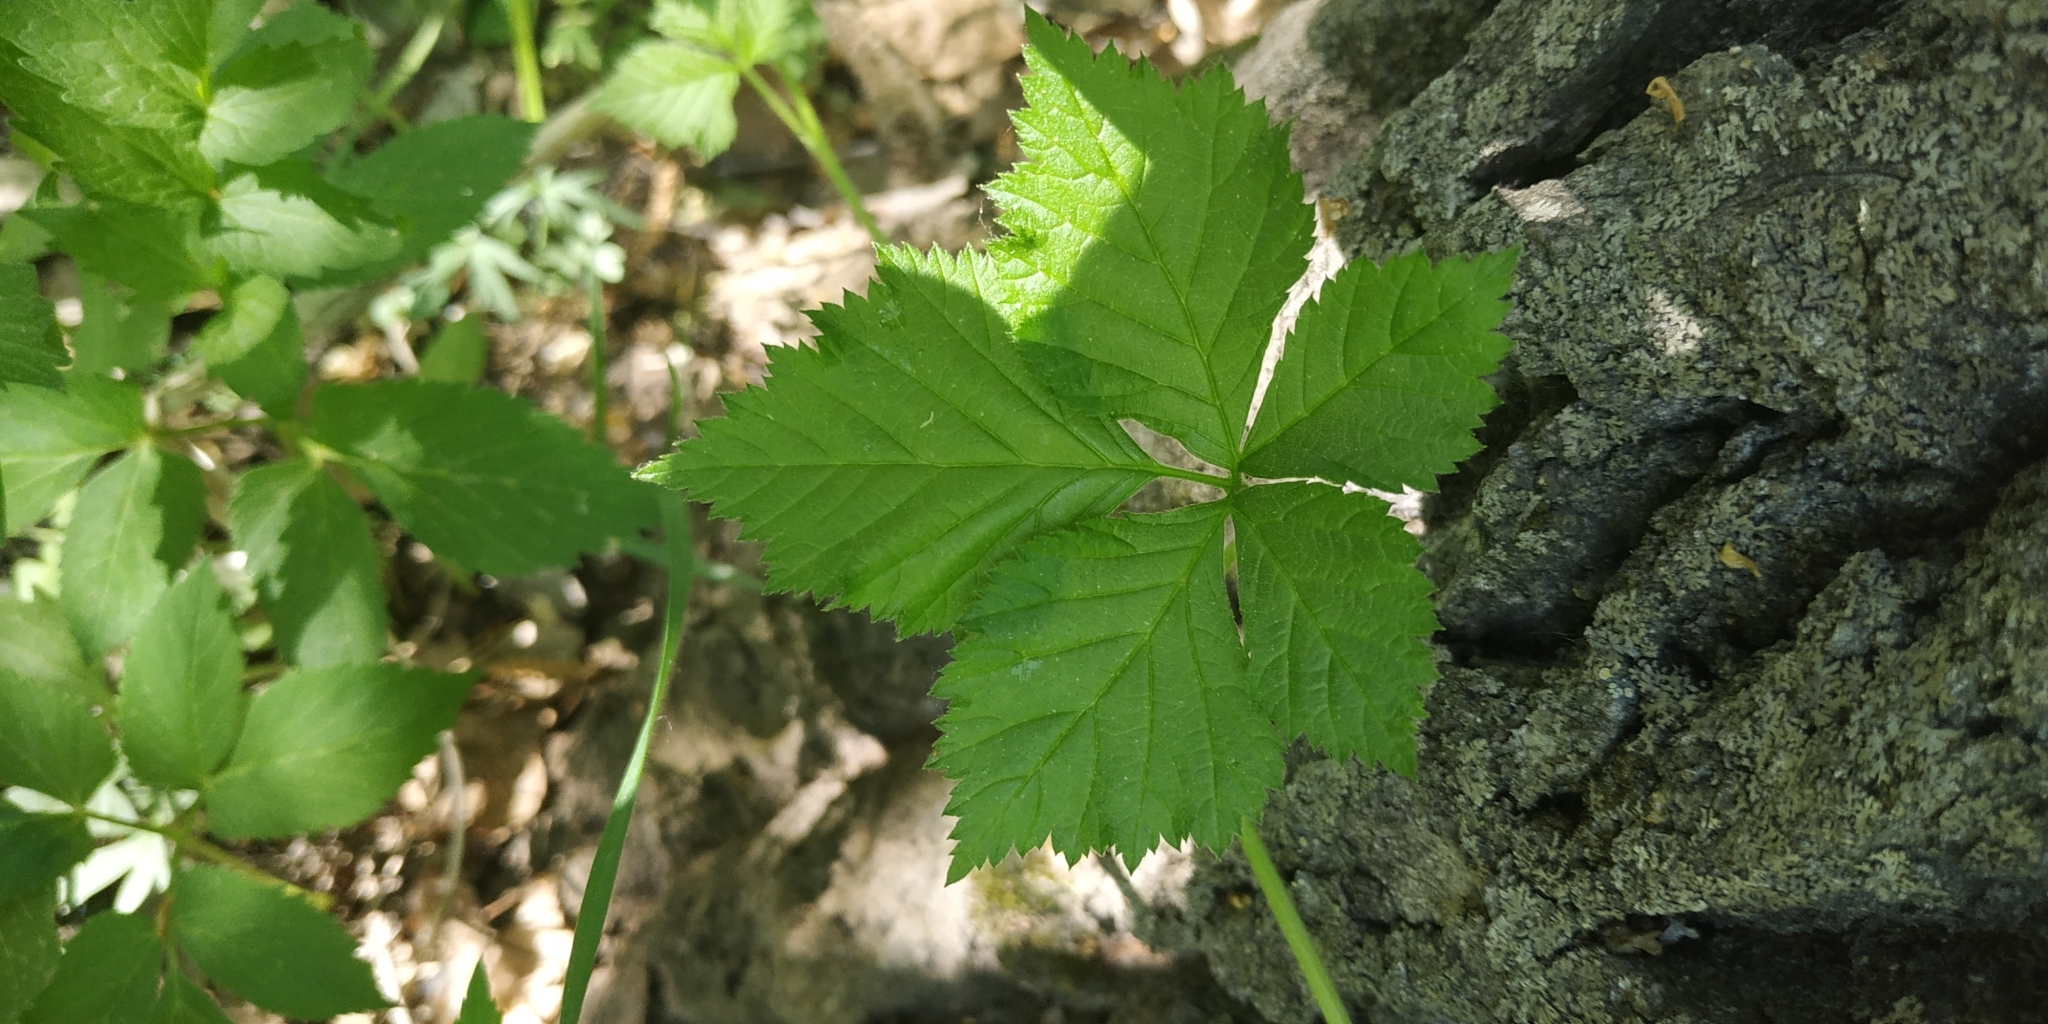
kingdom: Plantae
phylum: Tracheophyta
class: Magnoliopsida
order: Rosales
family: Rosaceae
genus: Rubus
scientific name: Rubus saxatilis
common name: Stone bramble
